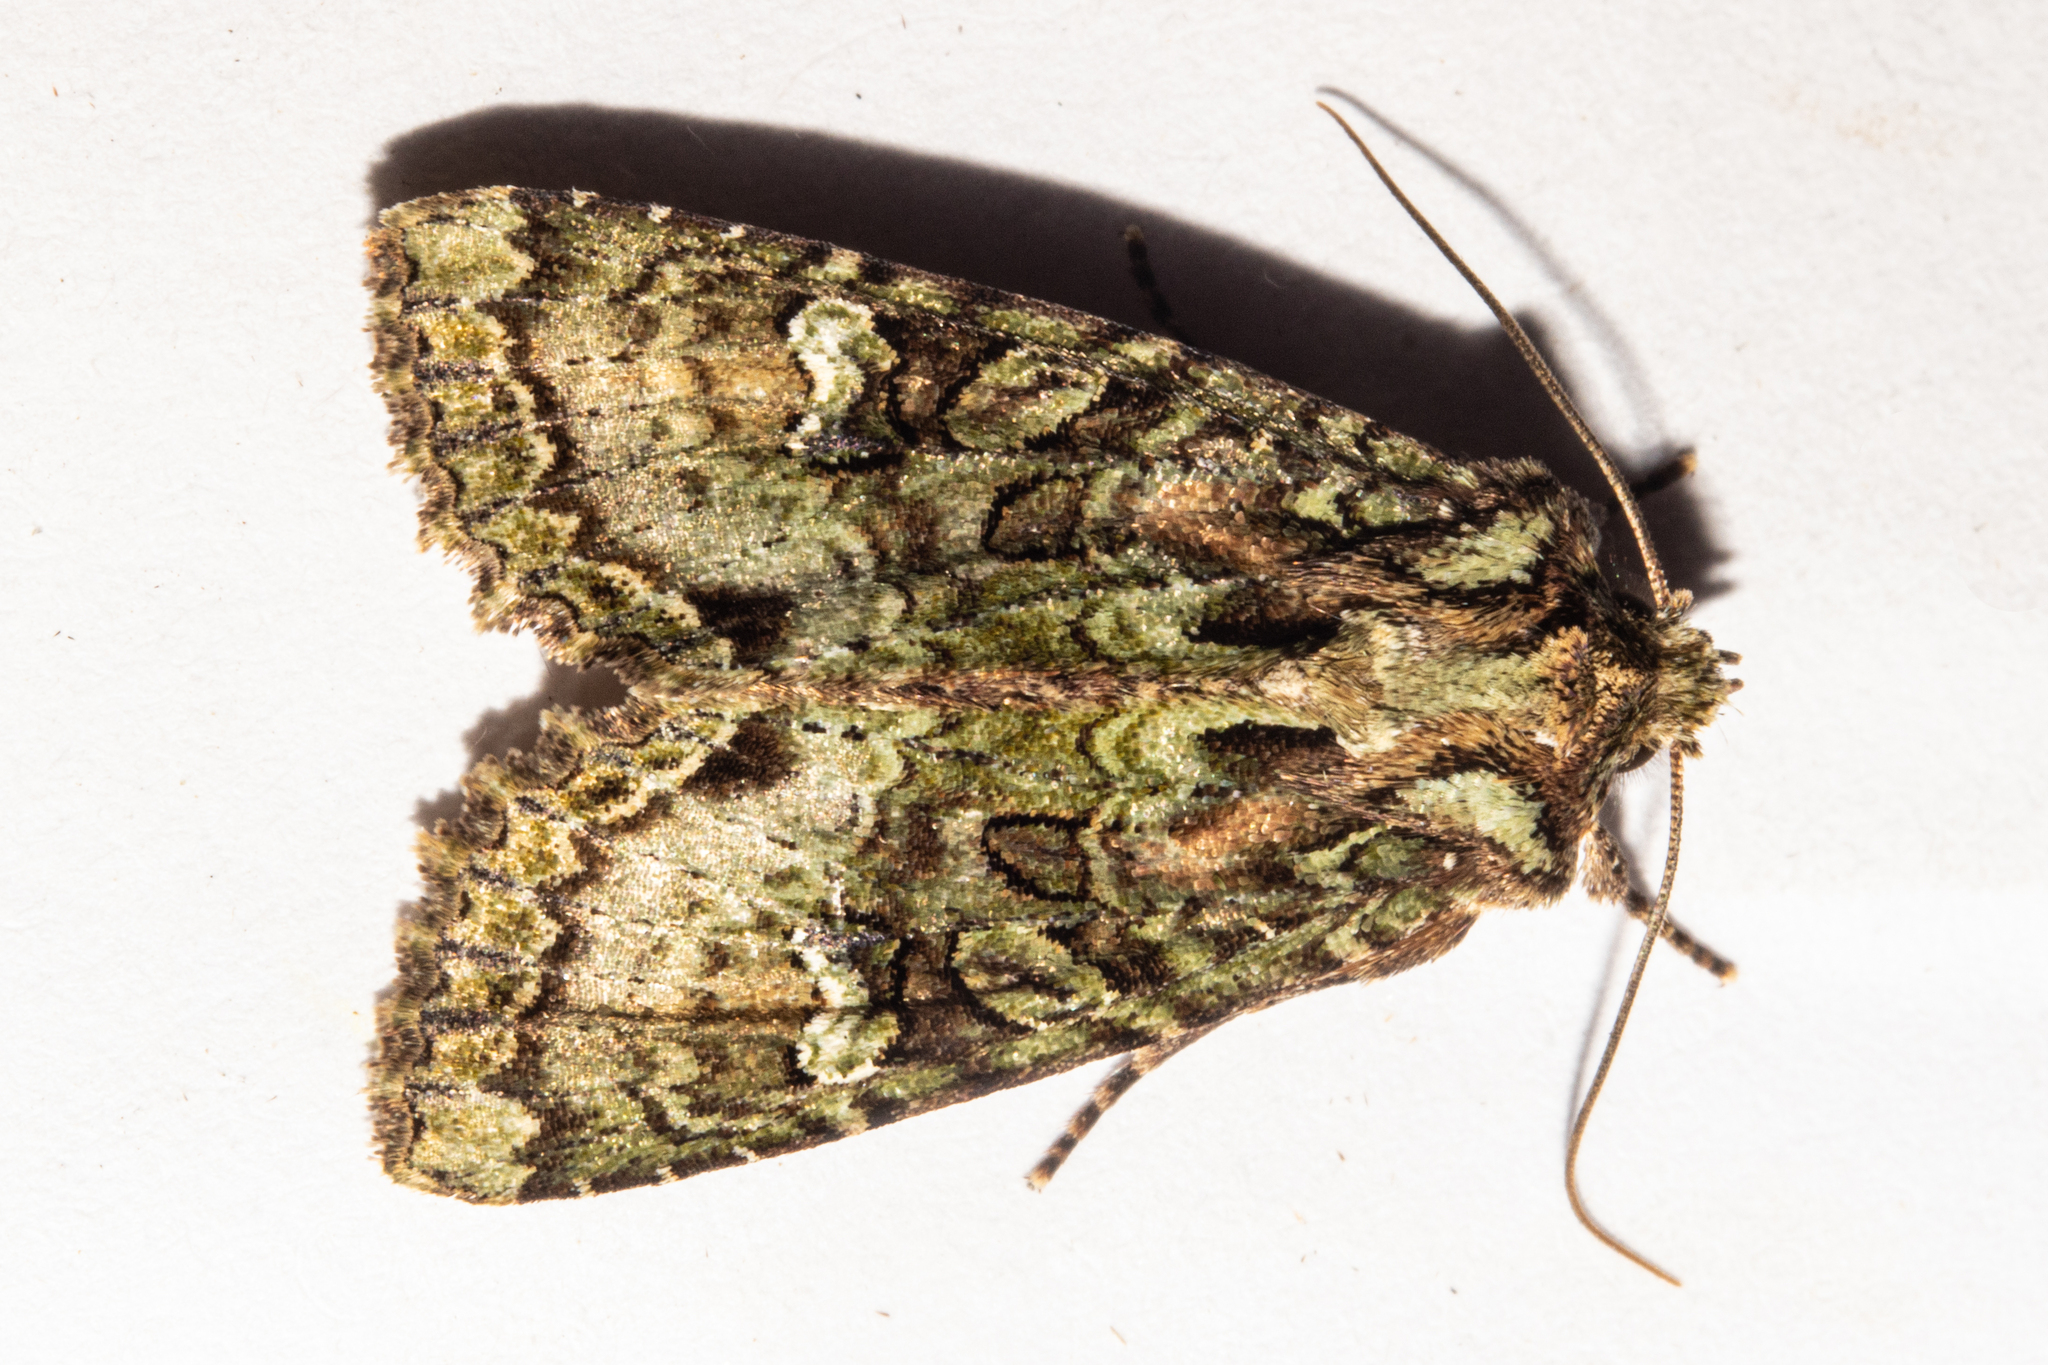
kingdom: Animalia
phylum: Arthropoda
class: Insecta
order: Lepidoptera
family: Noctuidae
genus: Meterana
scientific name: Meterana
